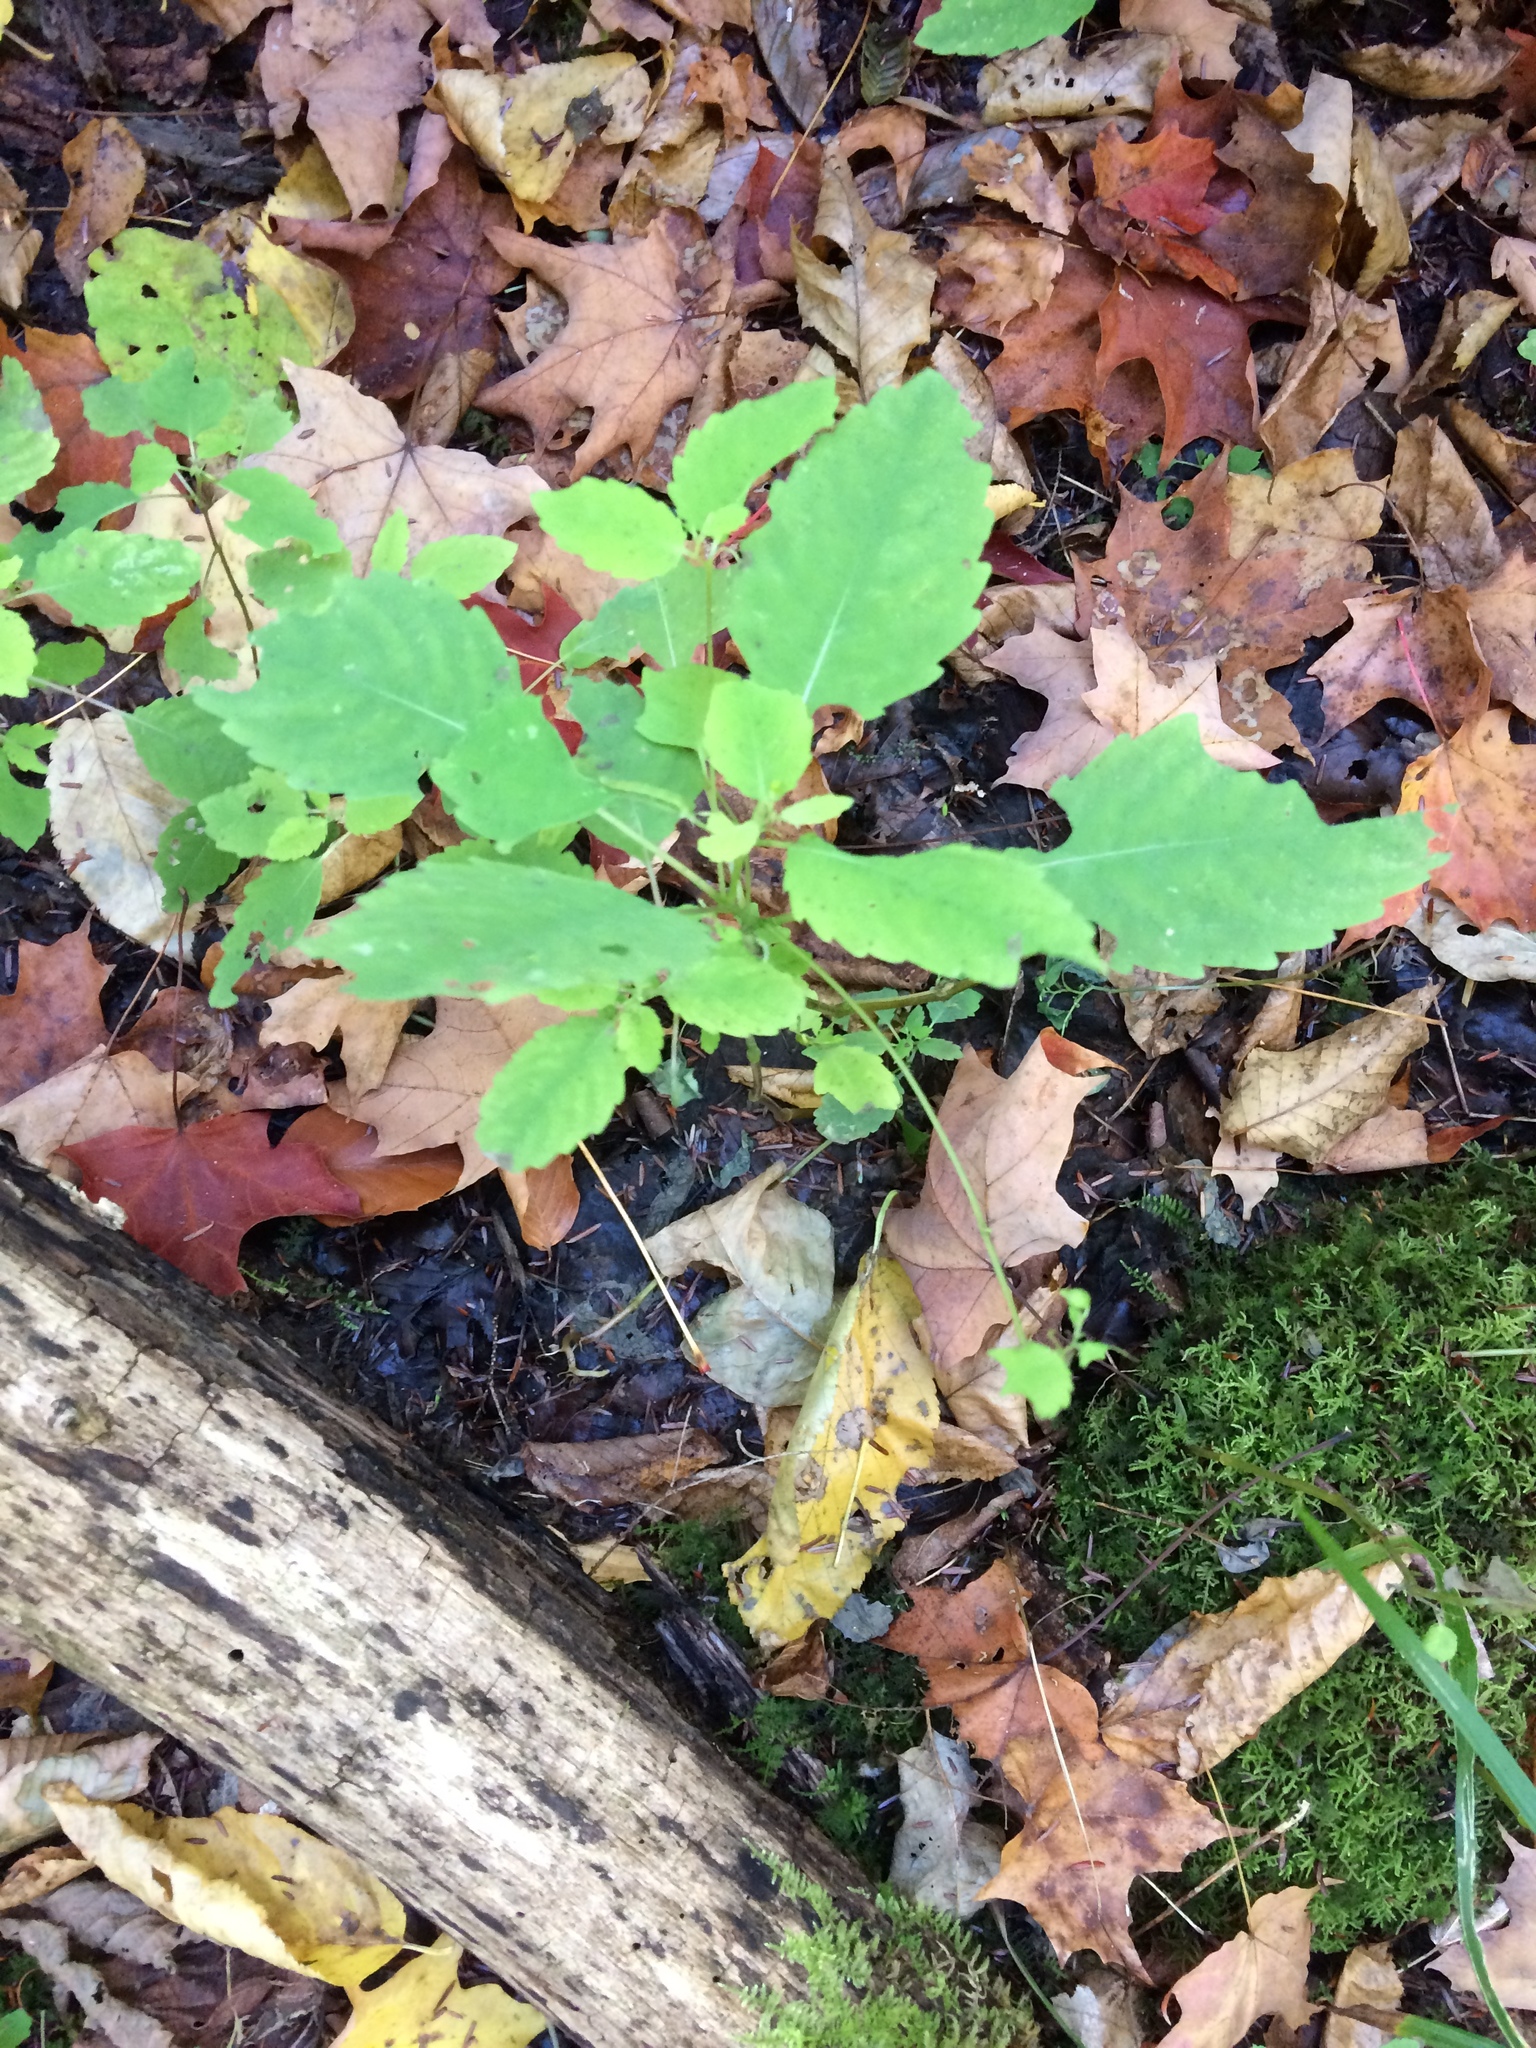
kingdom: Plantae
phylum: Tracheophyta
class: Magnoliopsida
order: Ericales
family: Balsaminaceae
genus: Impatiens
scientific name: Impatiens capensis
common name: Orange balsam
